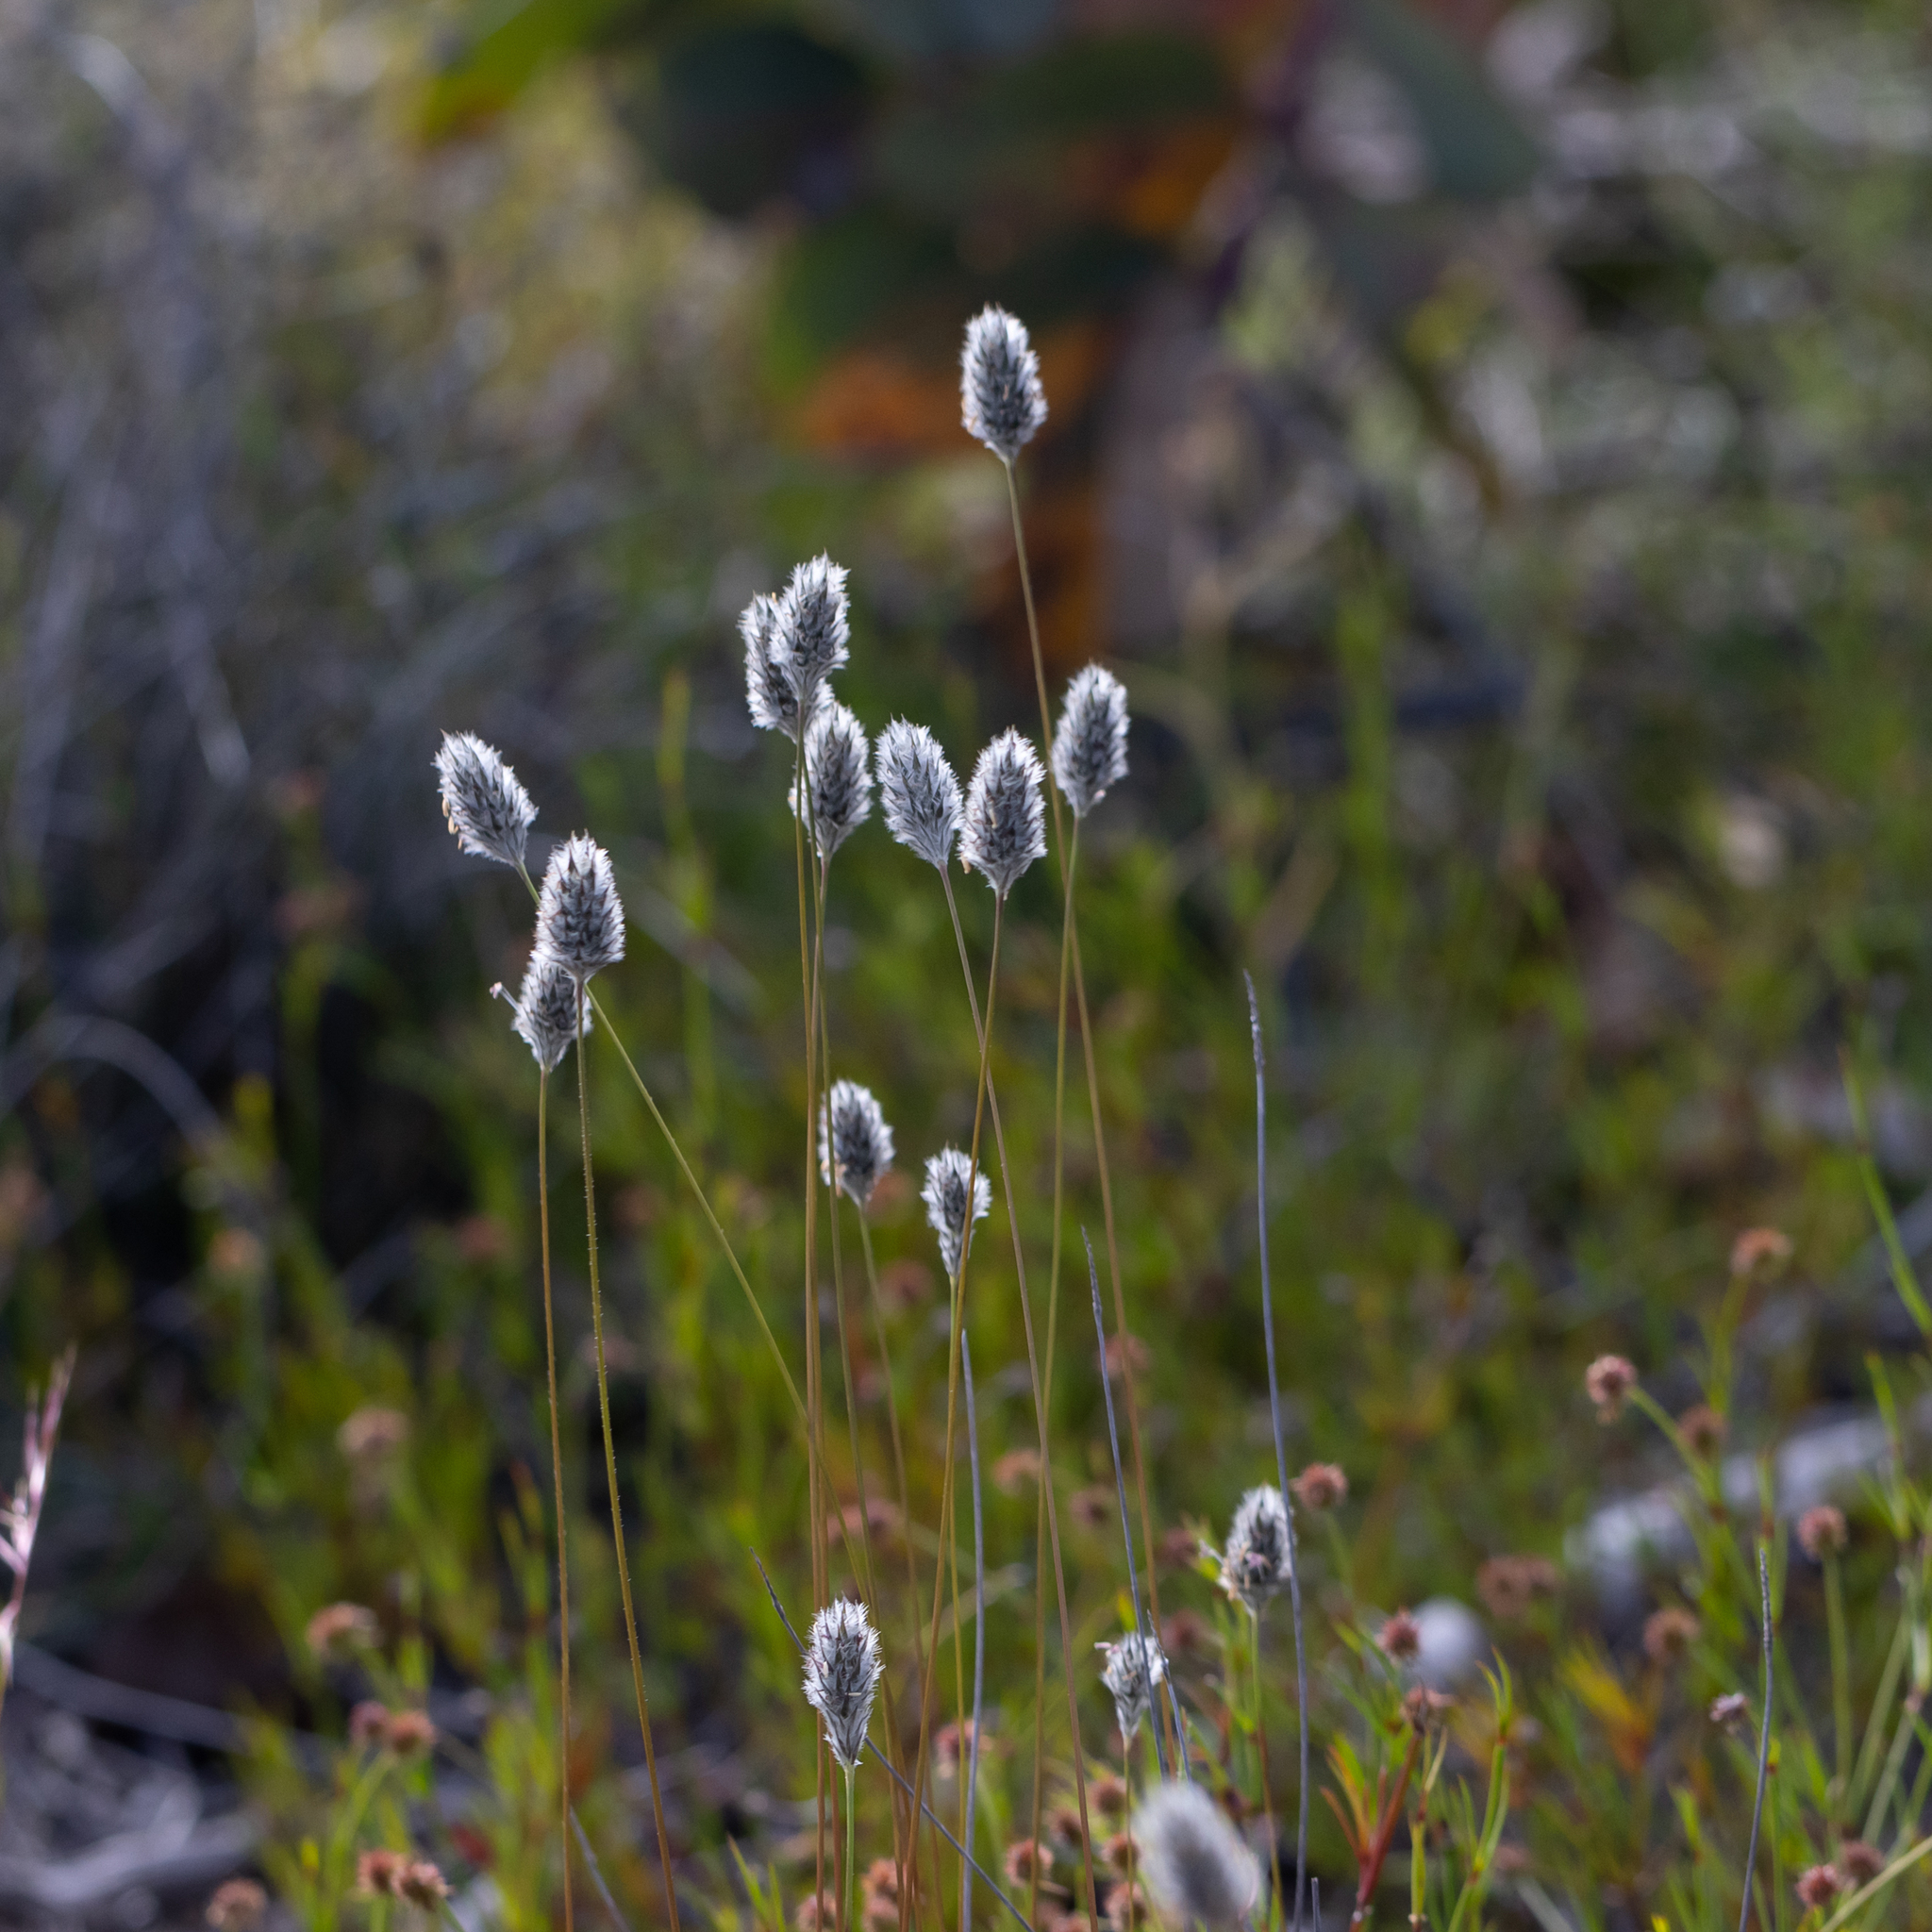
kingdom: Plantae
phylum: Tracheophyta
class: Liliopsida
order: Poales
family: Poaceae
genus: Neurachne
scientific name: Neurachne alopecuroidea
